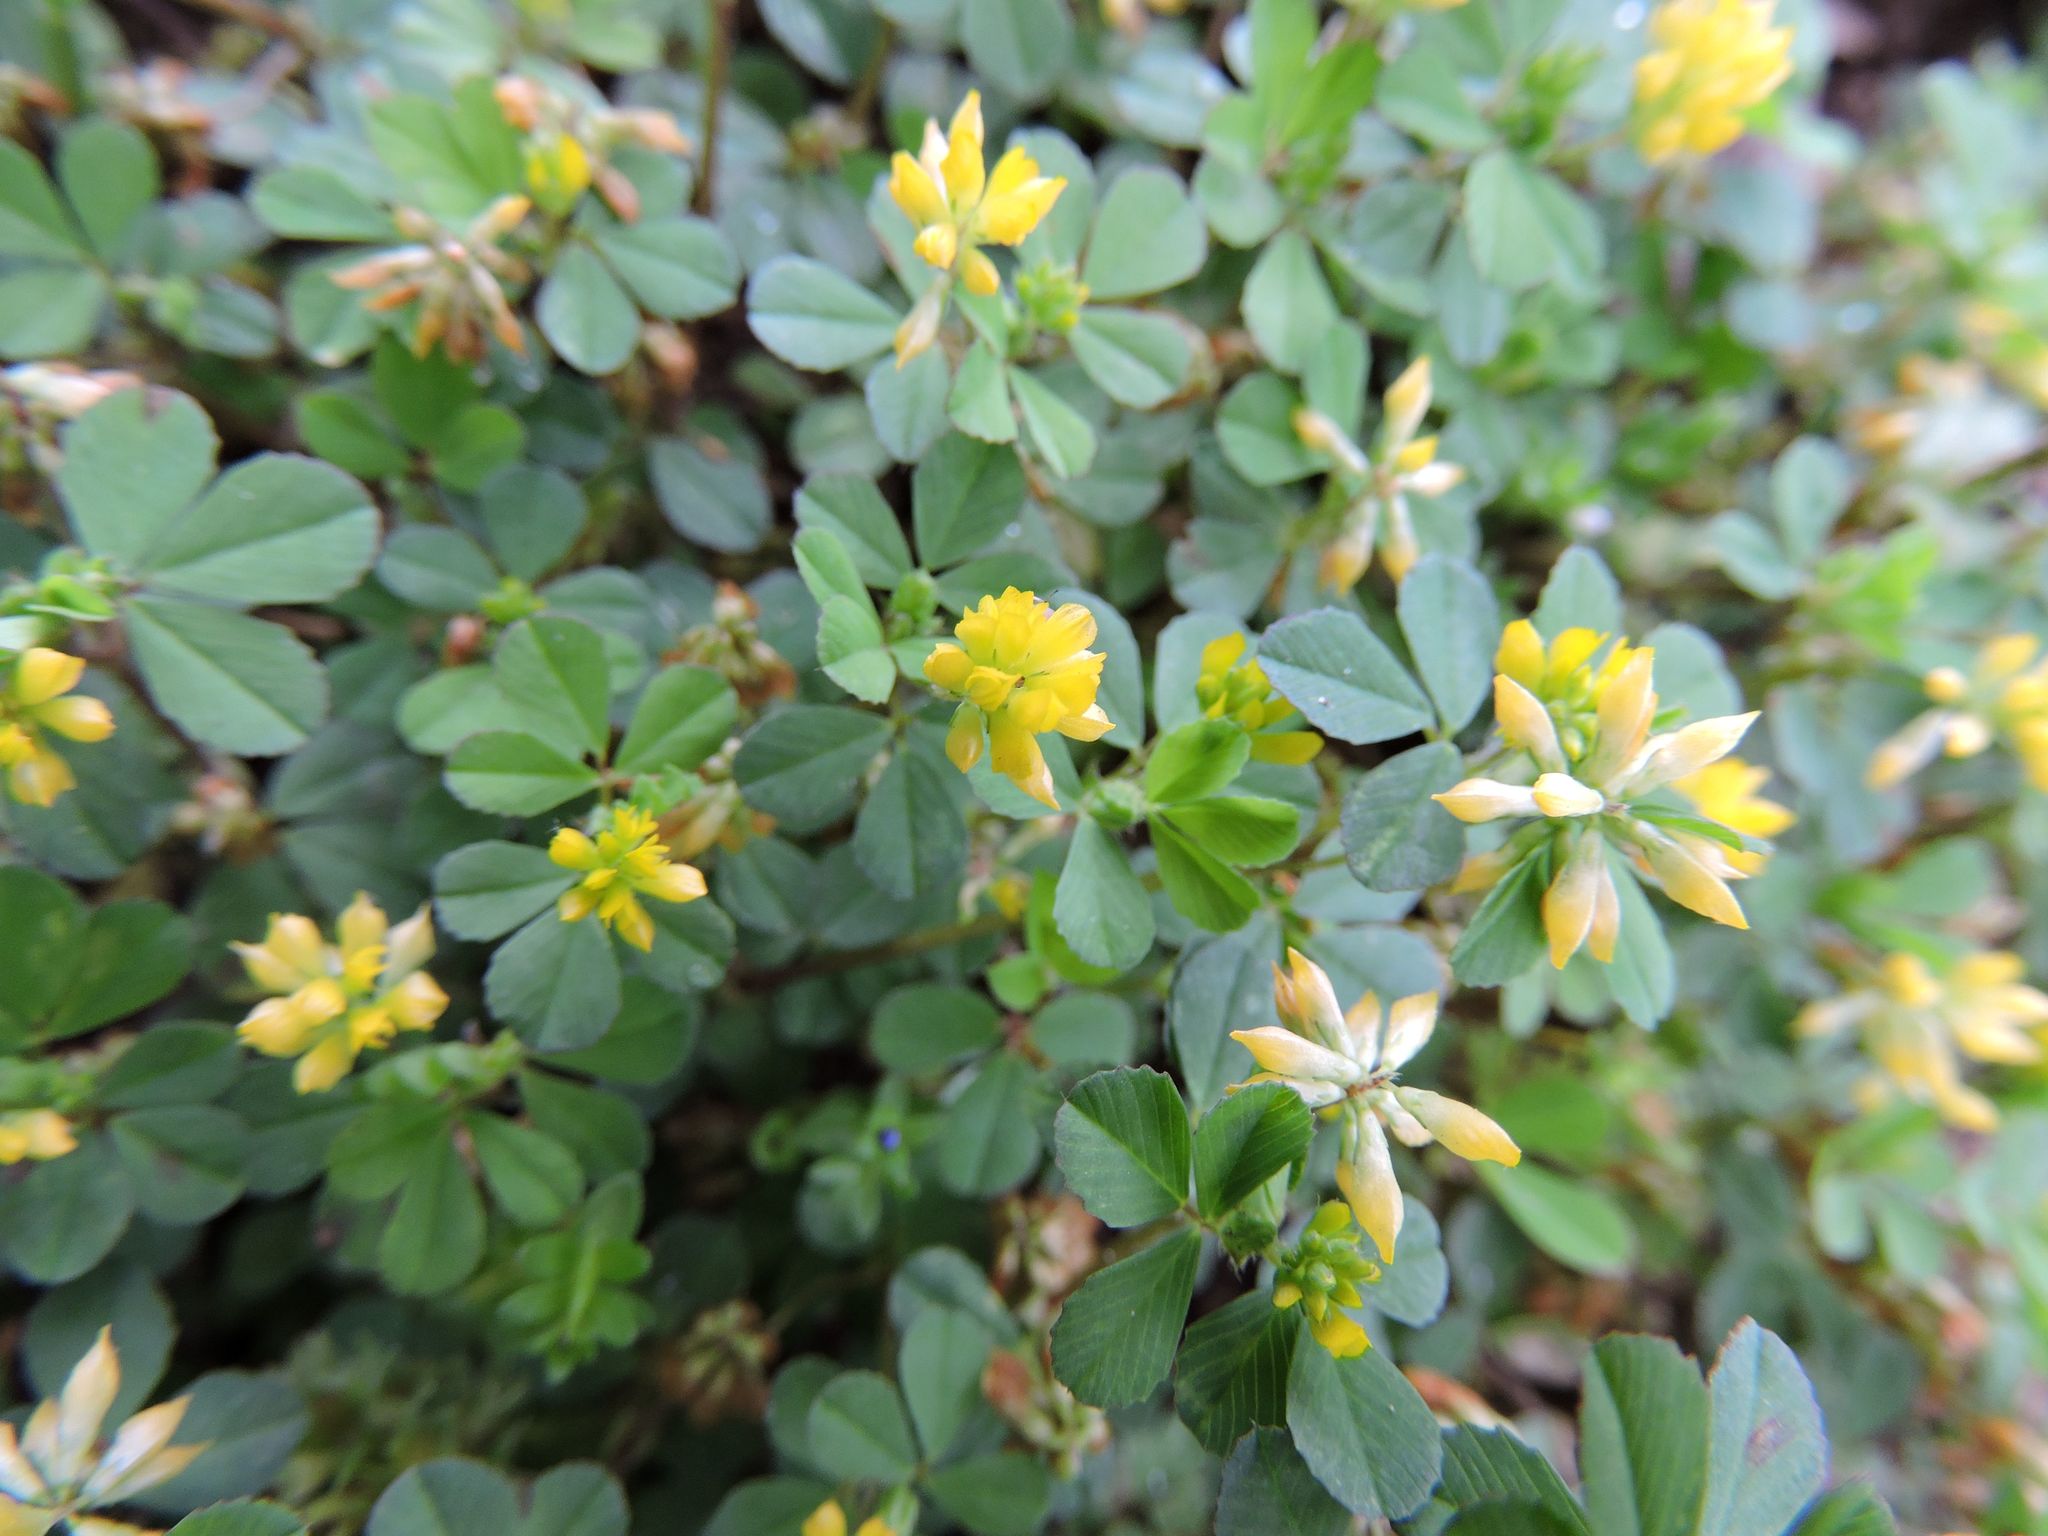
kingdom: Plantae
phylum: Tracheophyta
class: Magnoliopsida
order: Fabales
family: Fabaceae
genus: Trifolium
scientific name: Trifolium dubium
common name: Suckling clover
